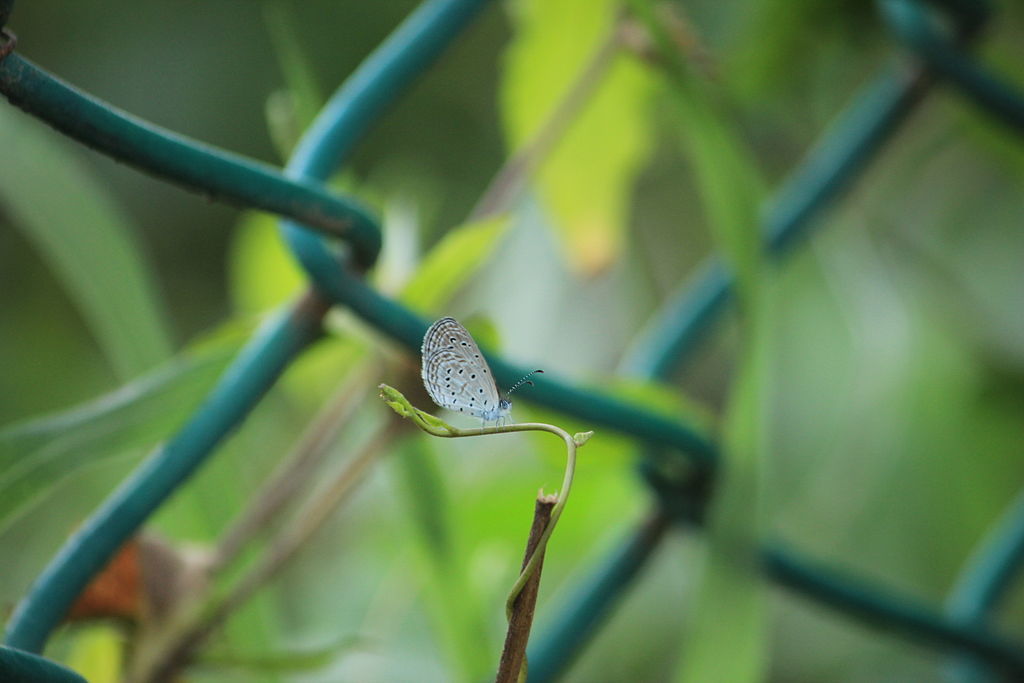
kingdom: Animalia
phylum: Arthropoda
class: Insecta
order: Lepidoptera
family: Lycaenidae
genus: Zizula
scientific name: Zizula hylax
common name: Gaika blue
